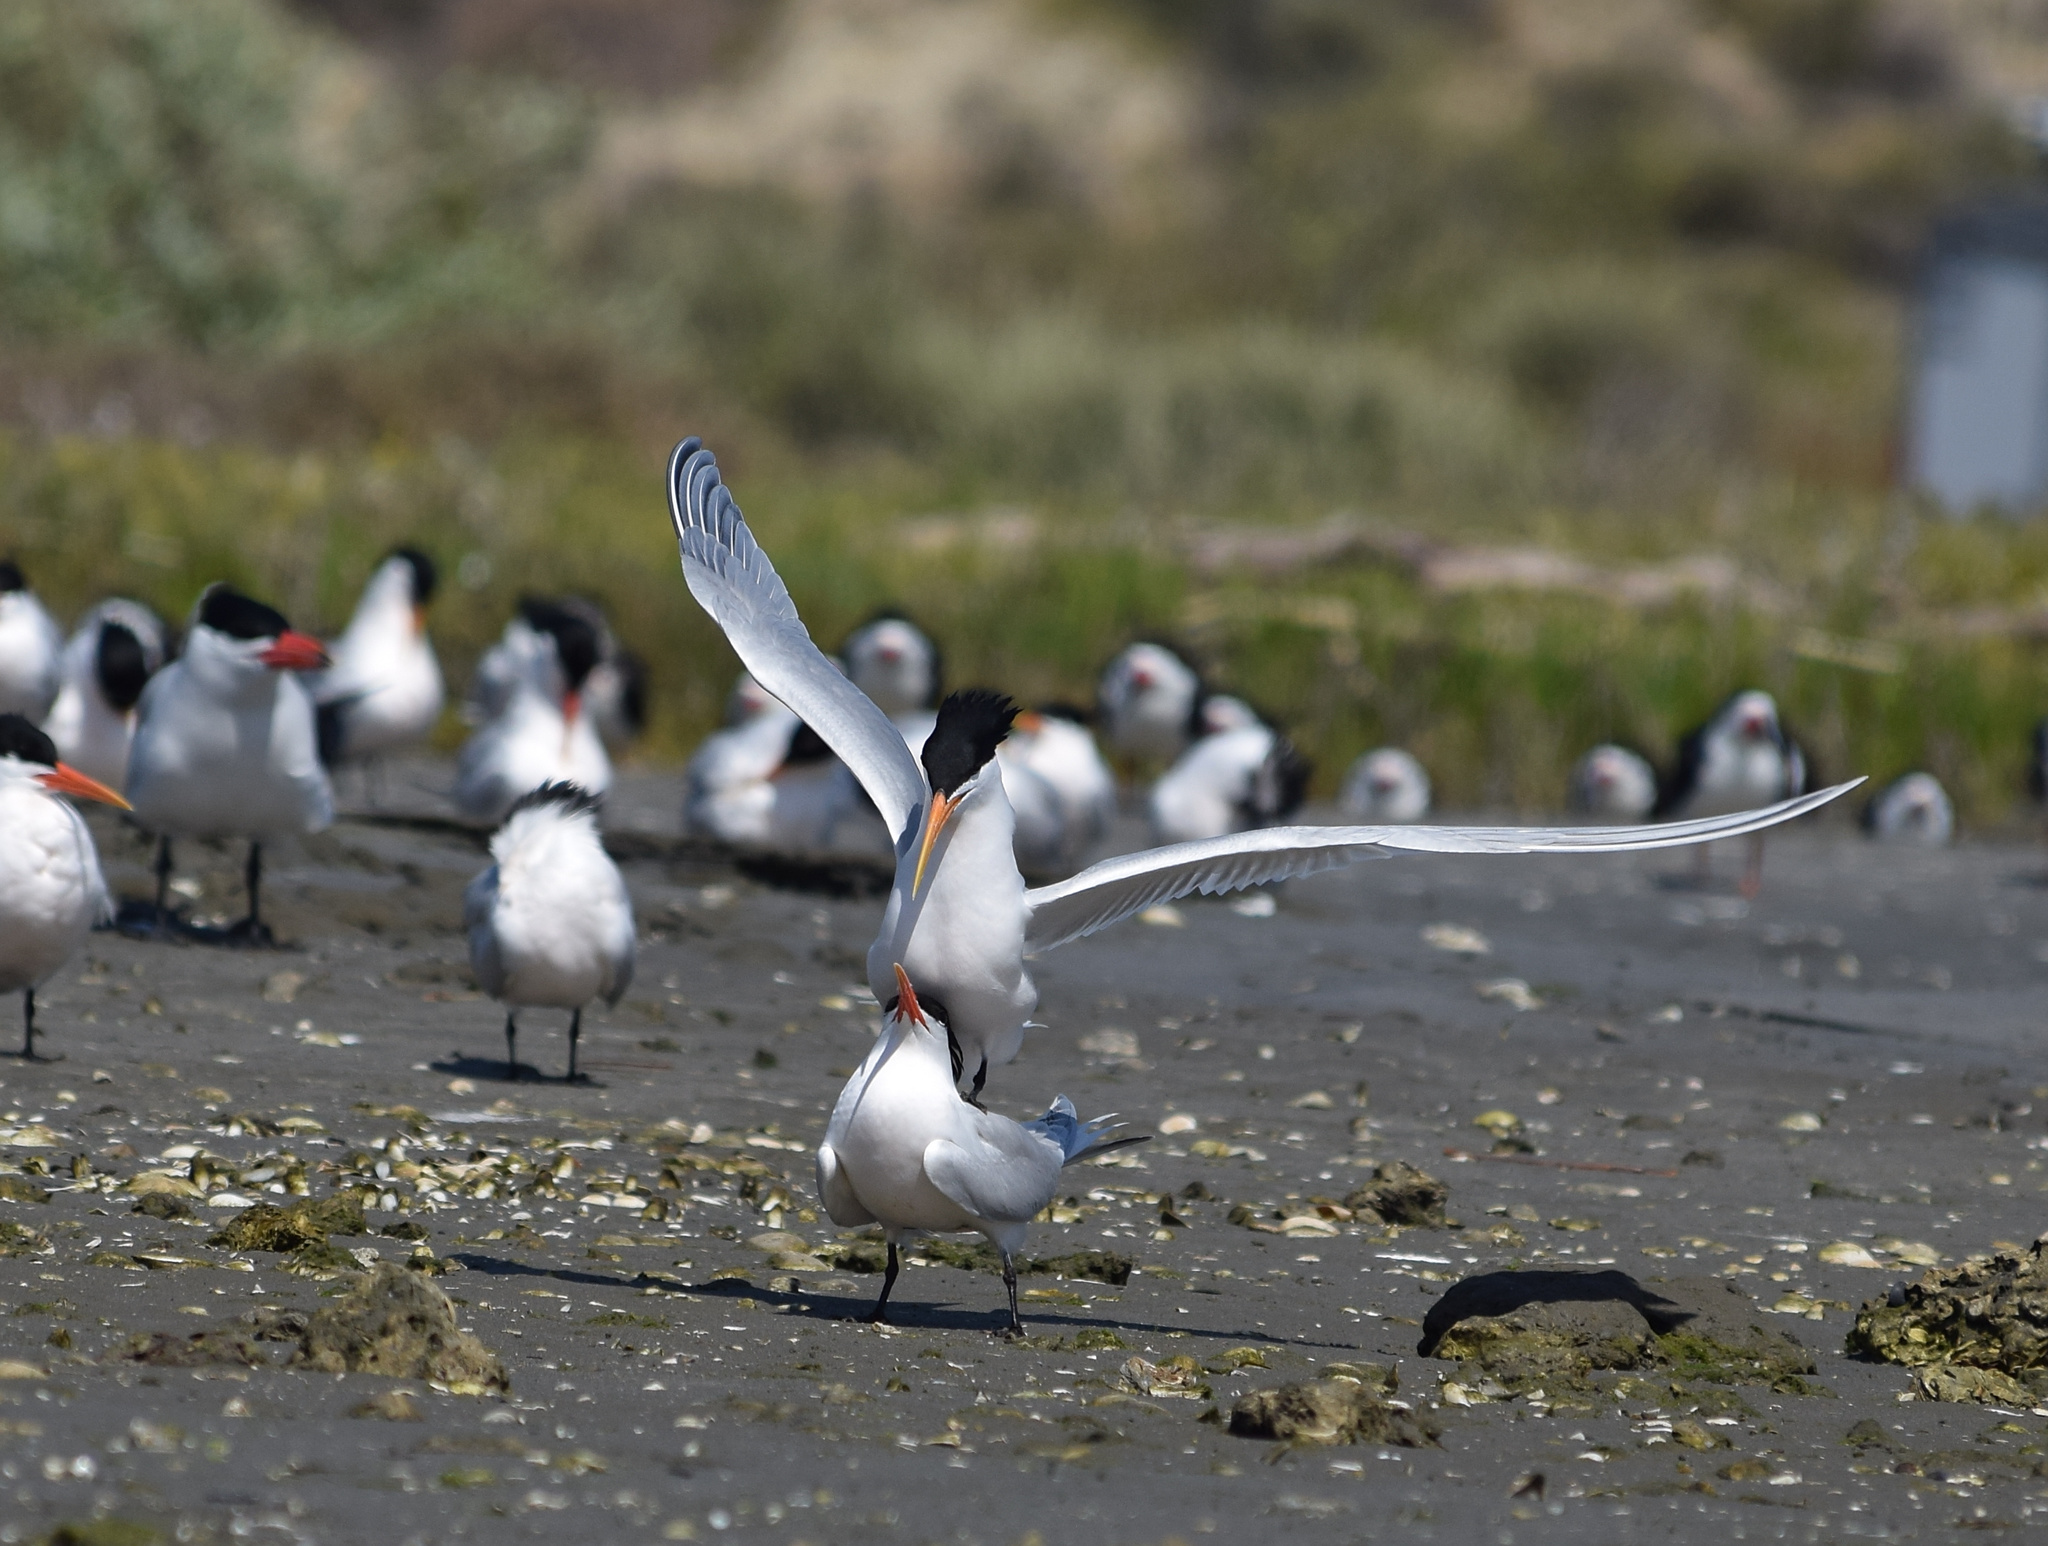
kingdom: Animalia
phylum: Chordata
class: Aves
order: Charadriiformes
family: Laridae
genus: Thalasseus
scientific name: Thalasseus elegans
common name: Elegant tern
